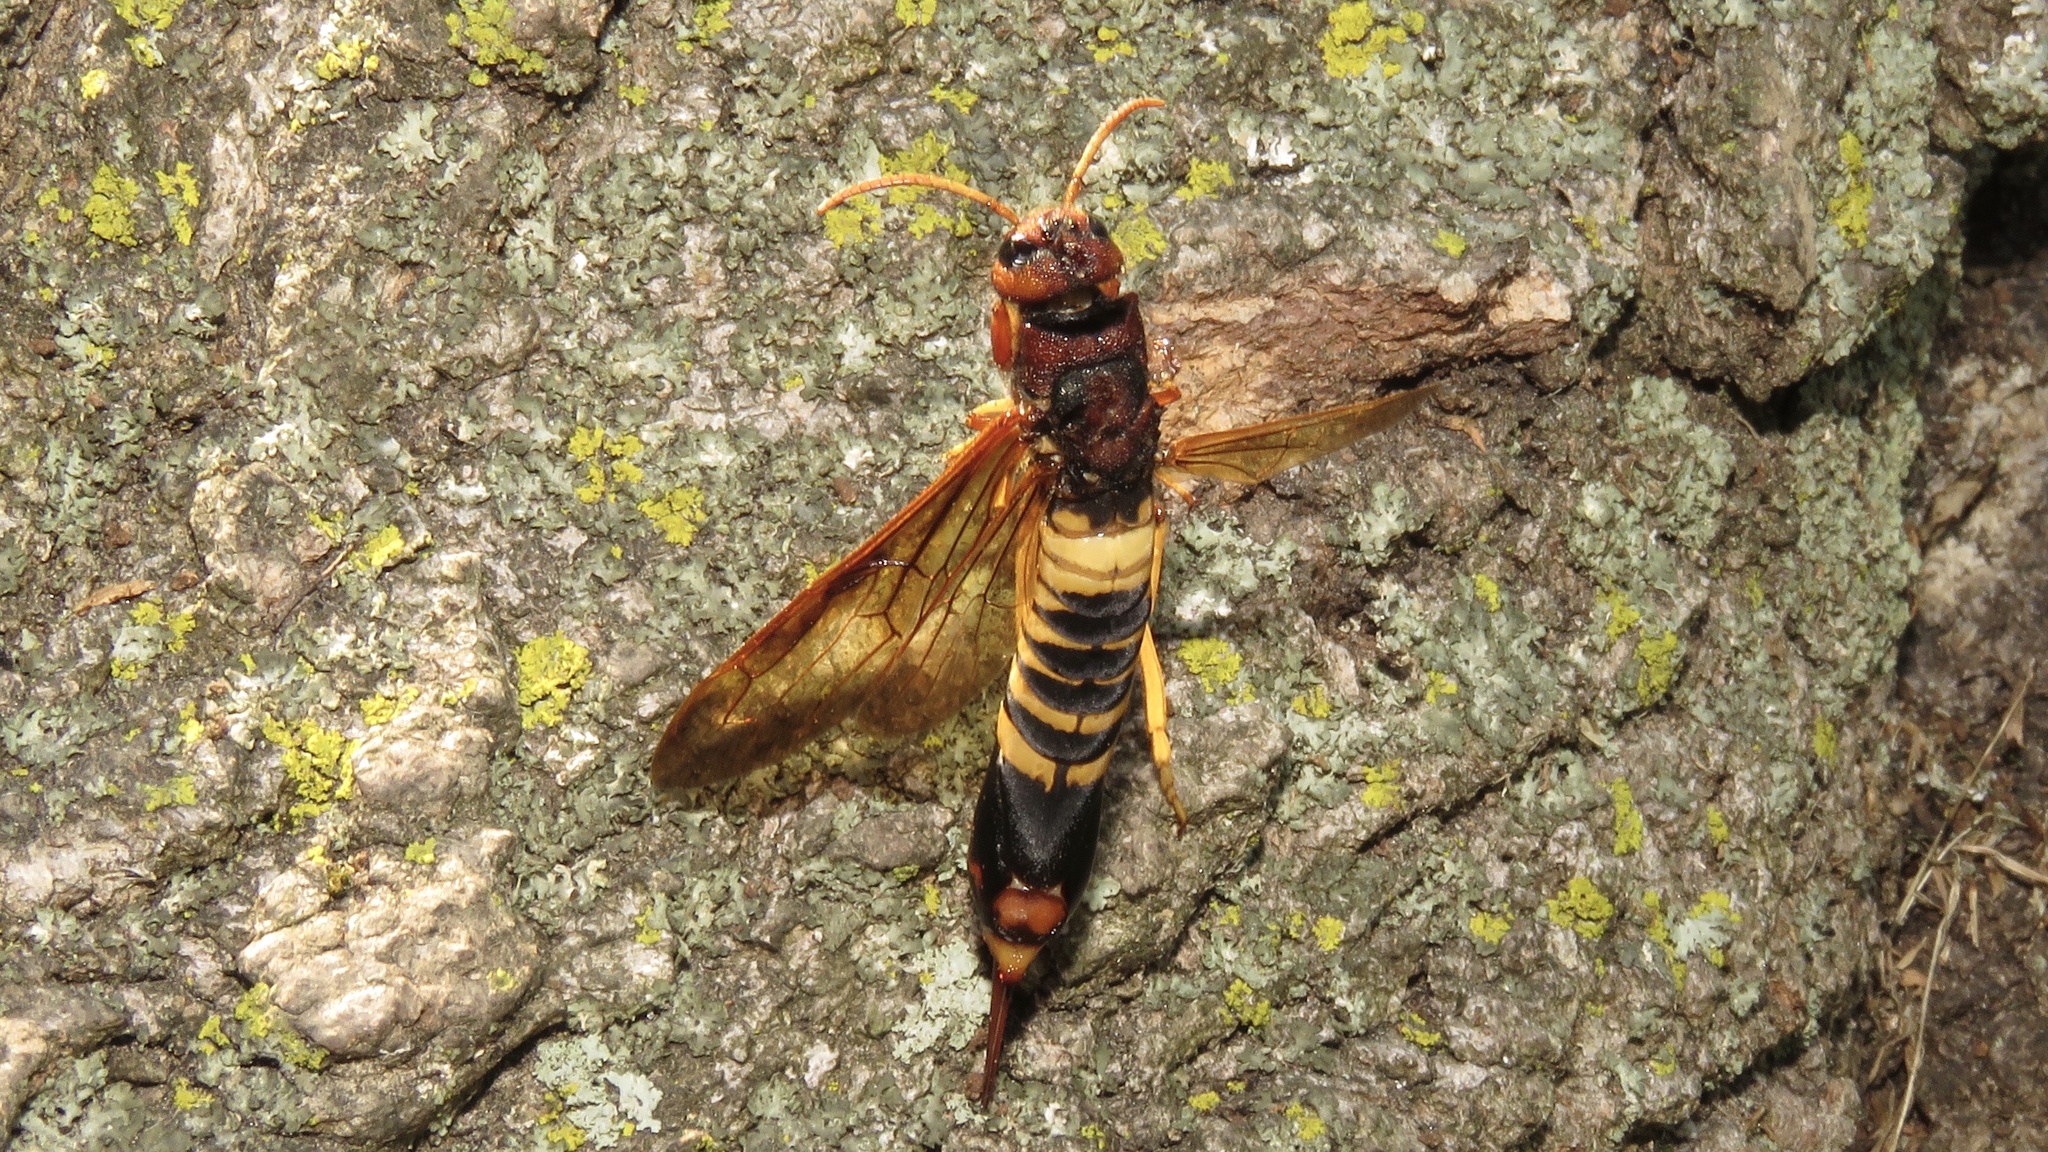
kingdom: Animalia
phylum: Arthropoda
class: Insecta
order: Hymenoptera
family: Siricidae
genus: Tremex
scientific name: Tremex columba
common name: Wasp
